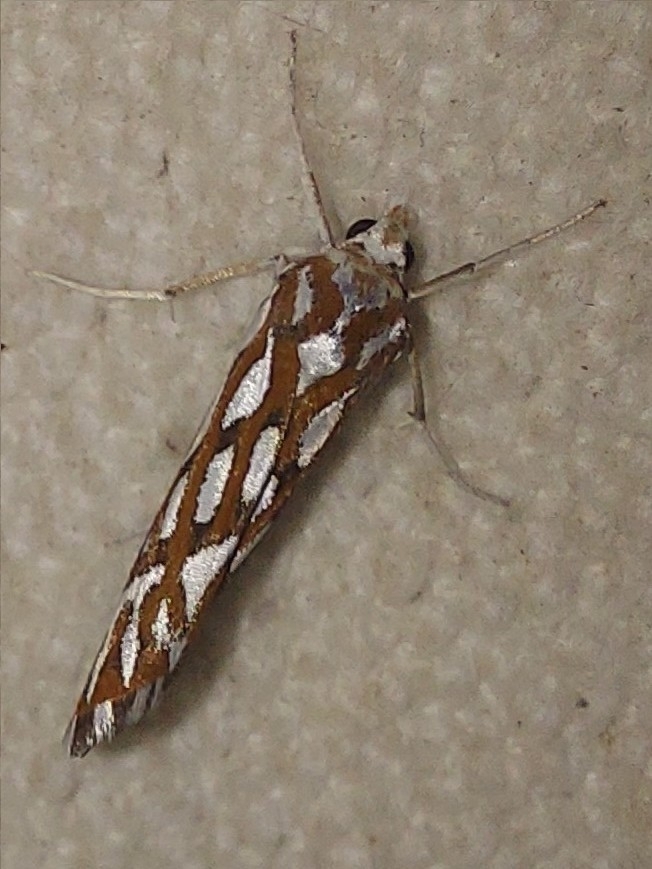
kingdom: Animalia
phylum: Arthropoda
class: Insecta
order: Lepidoptera
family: Geometridae
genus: Argyrophora
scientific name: Argyrophora trofonia
